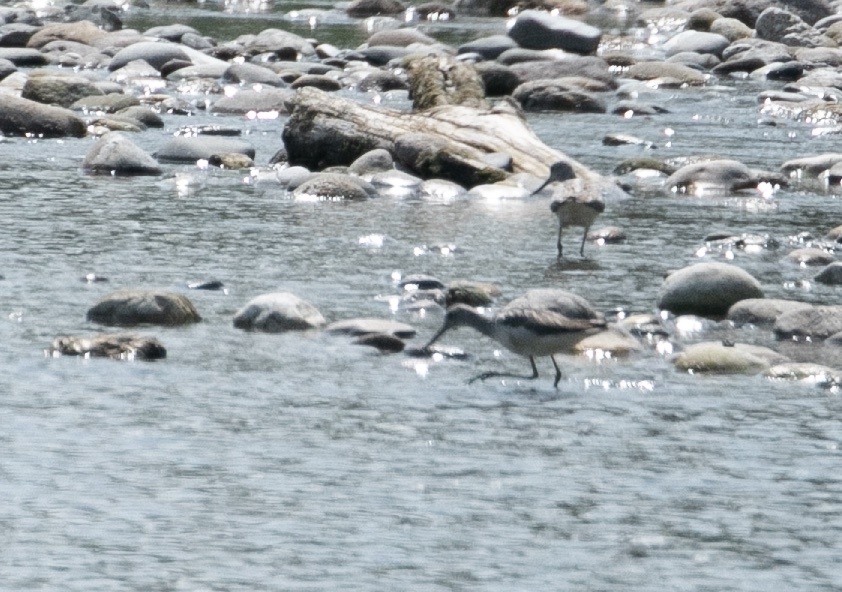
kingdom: Animalia
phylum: Chordata
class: Aves
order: Charadriiformes
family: Scolopacidae
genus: Tringa
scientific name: Tringa nebularia
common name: Common greenshank
